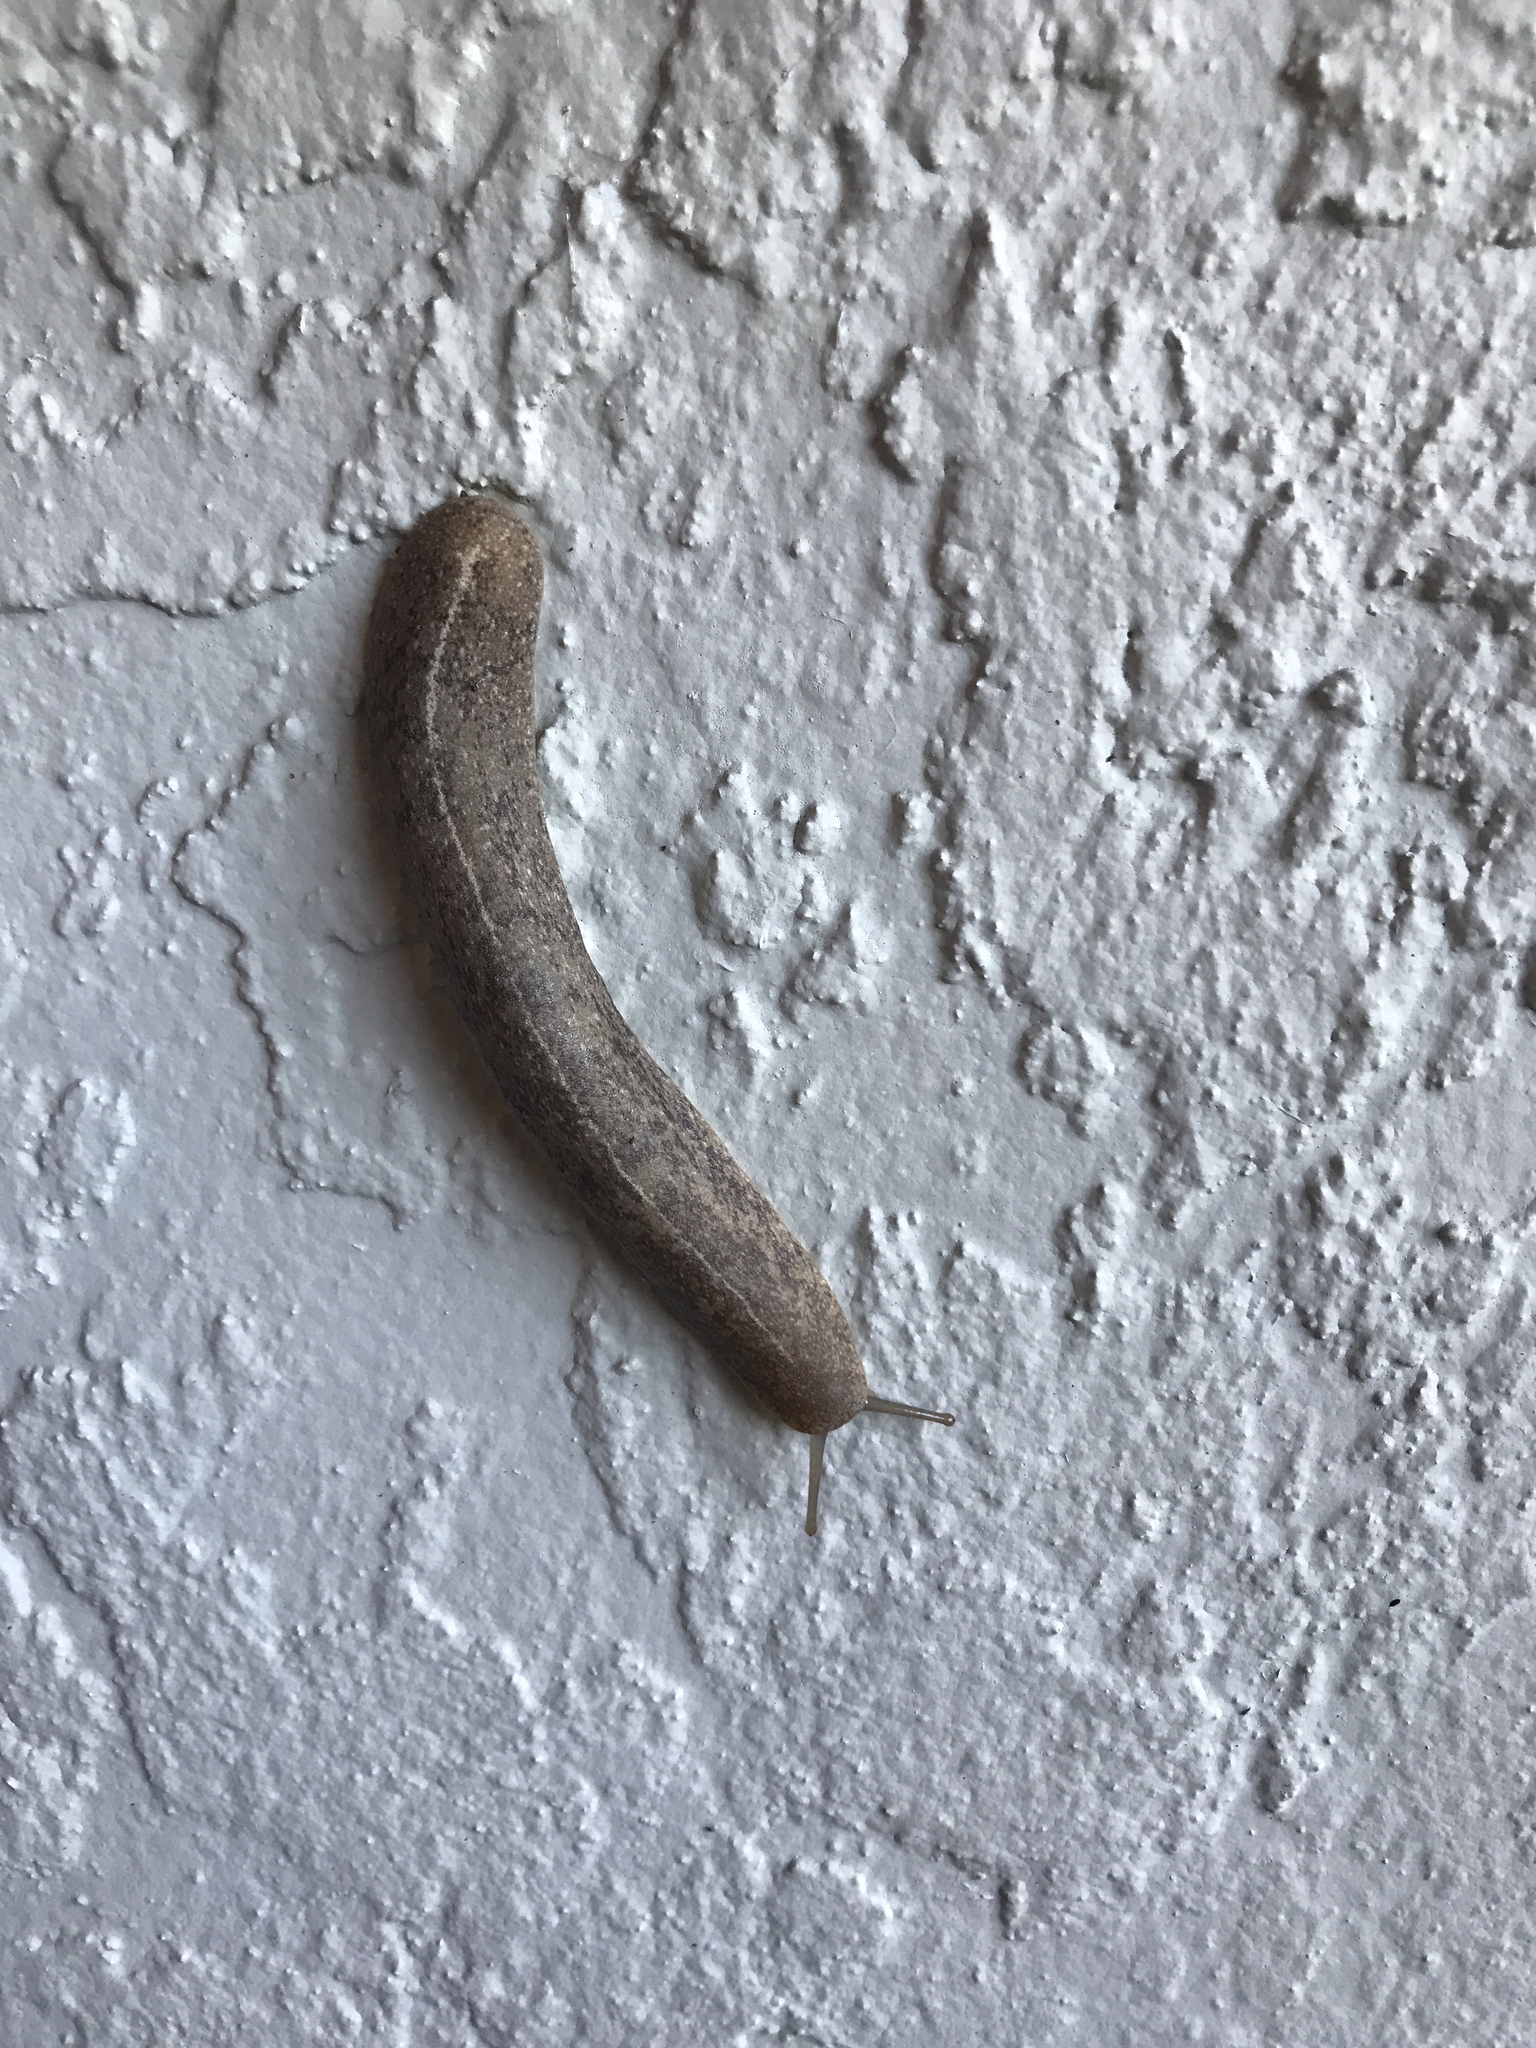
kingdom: Animalia
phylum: Mollusca
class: Gastropoda
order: Systellommatophora
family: Veronicellidae
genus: Leidyula
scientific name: Leidyula floridana
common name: Florida leatherleaf
